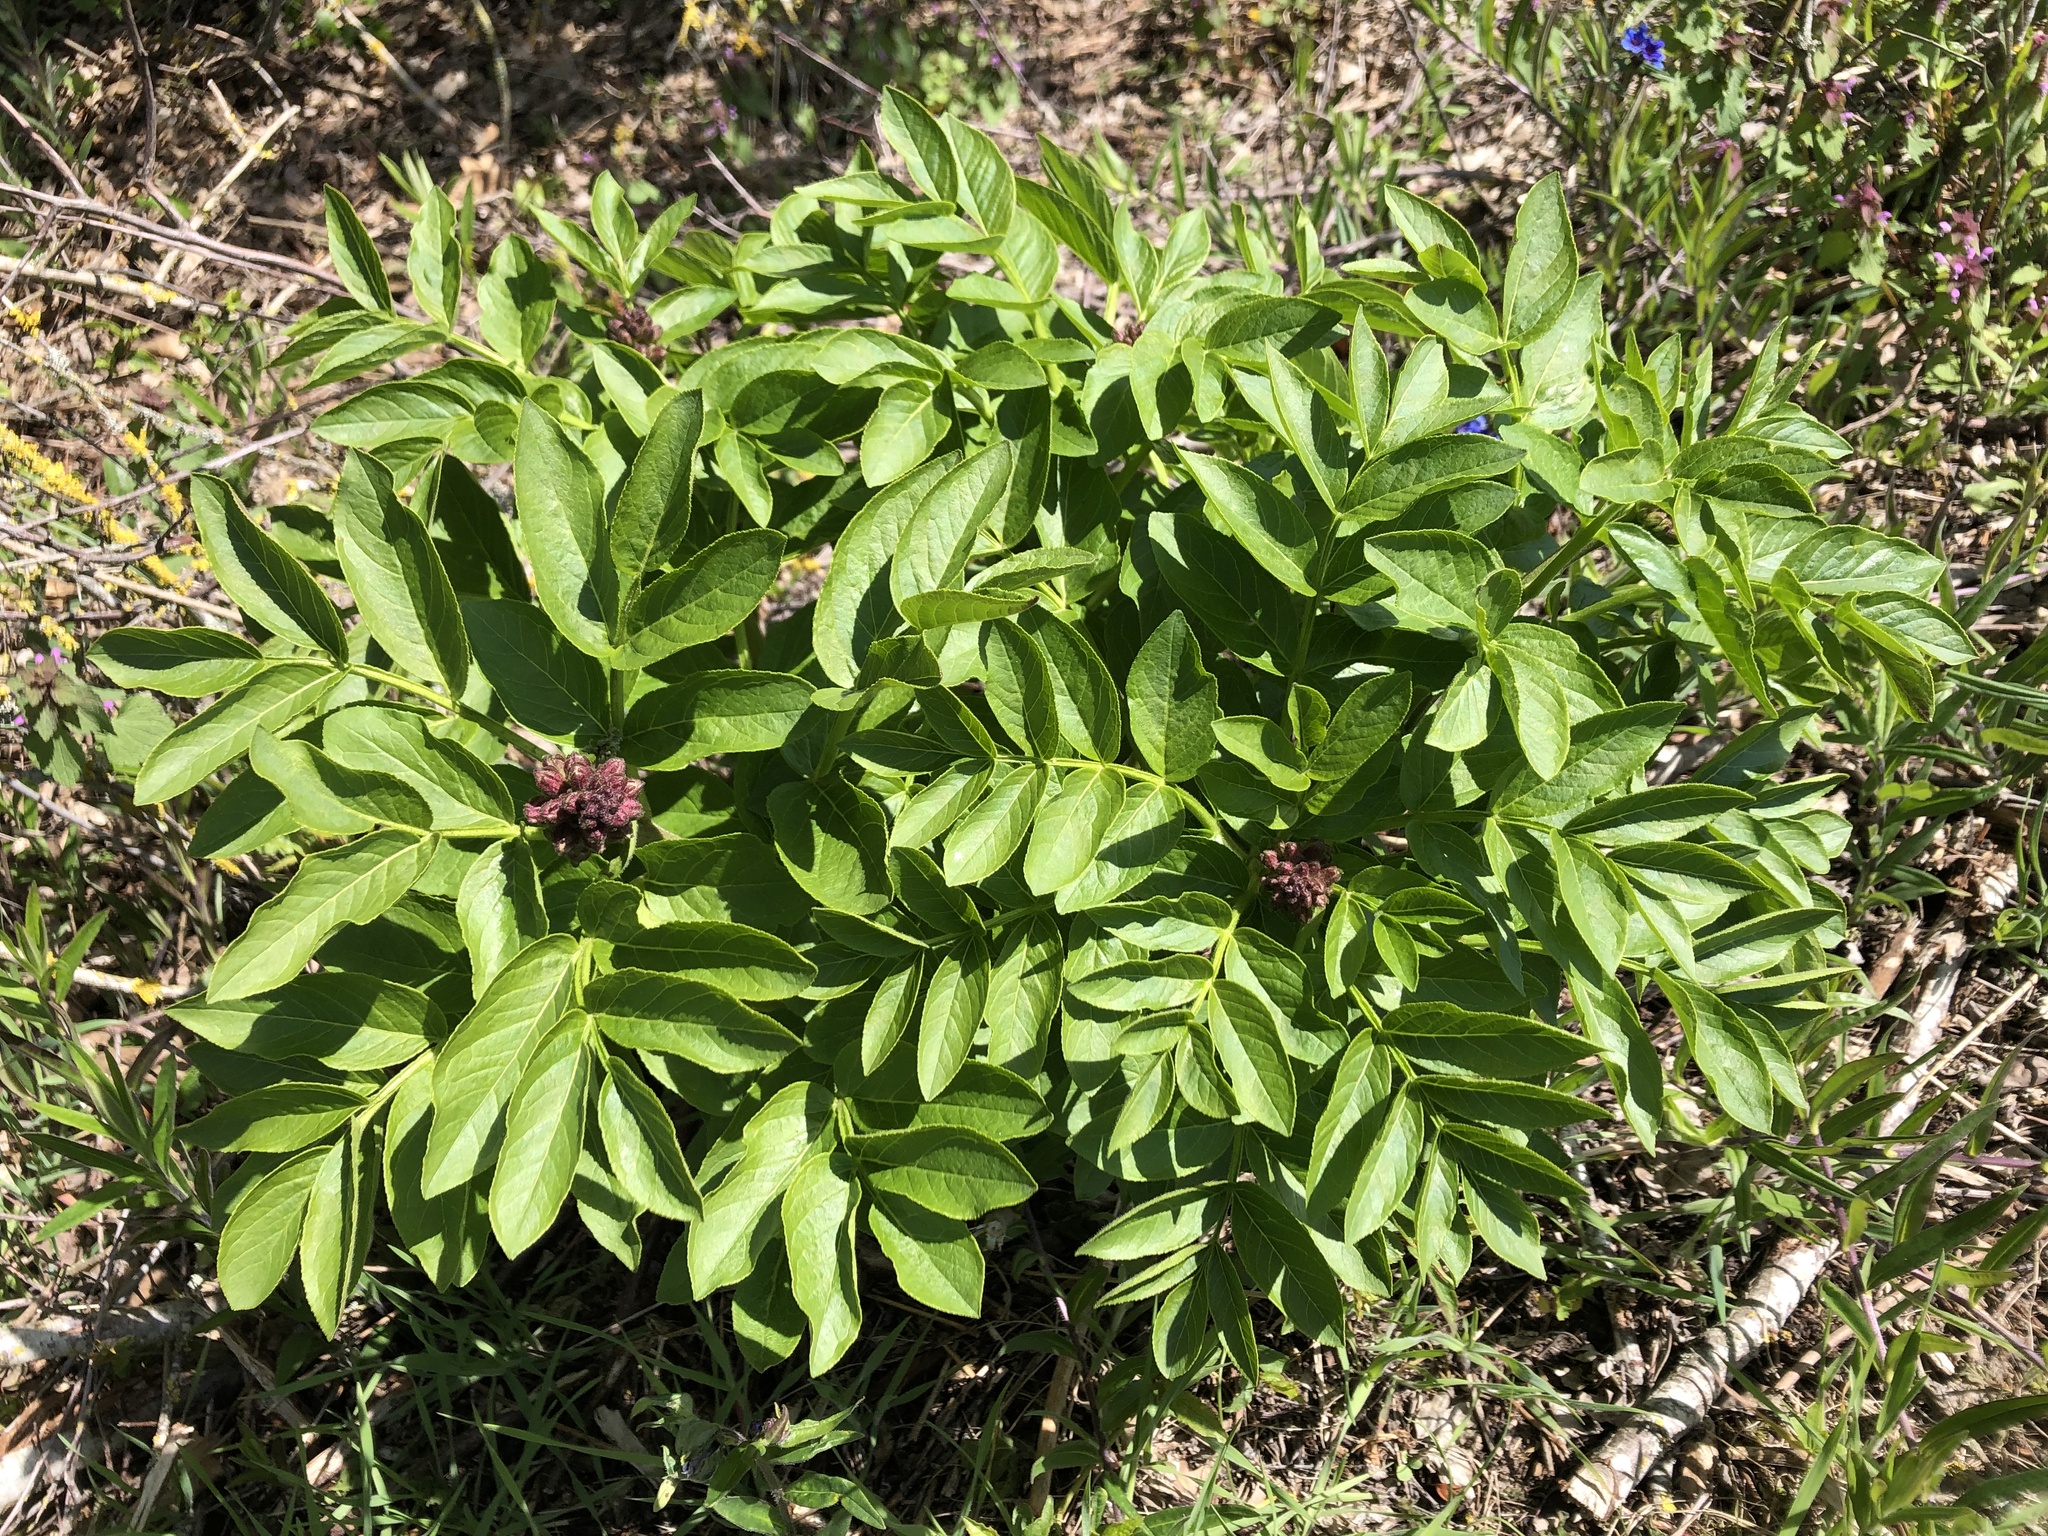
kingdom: Plantae
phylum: Tracheophyta
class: Magnoliopsida
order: Sapindales
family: Rutaceae
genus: Dictamnus
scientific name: Dictamnus albus
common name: Gasplant
